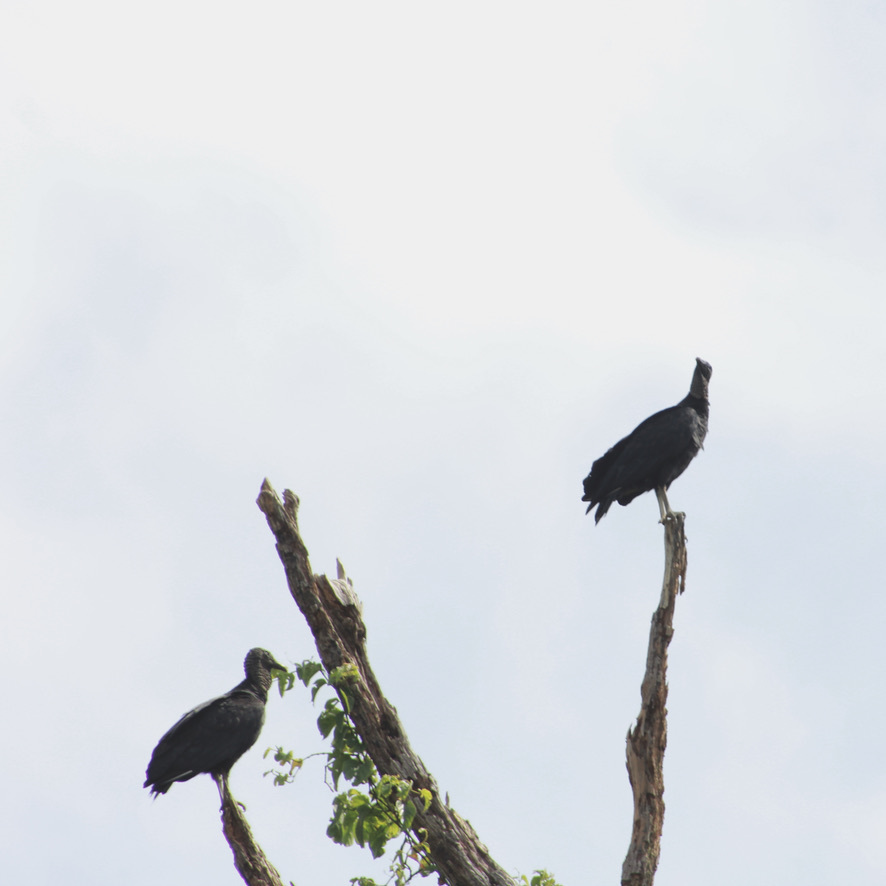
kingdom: Animalia
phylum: Chordata
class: Aves
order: Accipitriformes
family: Cathartidae
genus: Coragyps
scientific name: Coragyps atratus
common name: Black vulture
